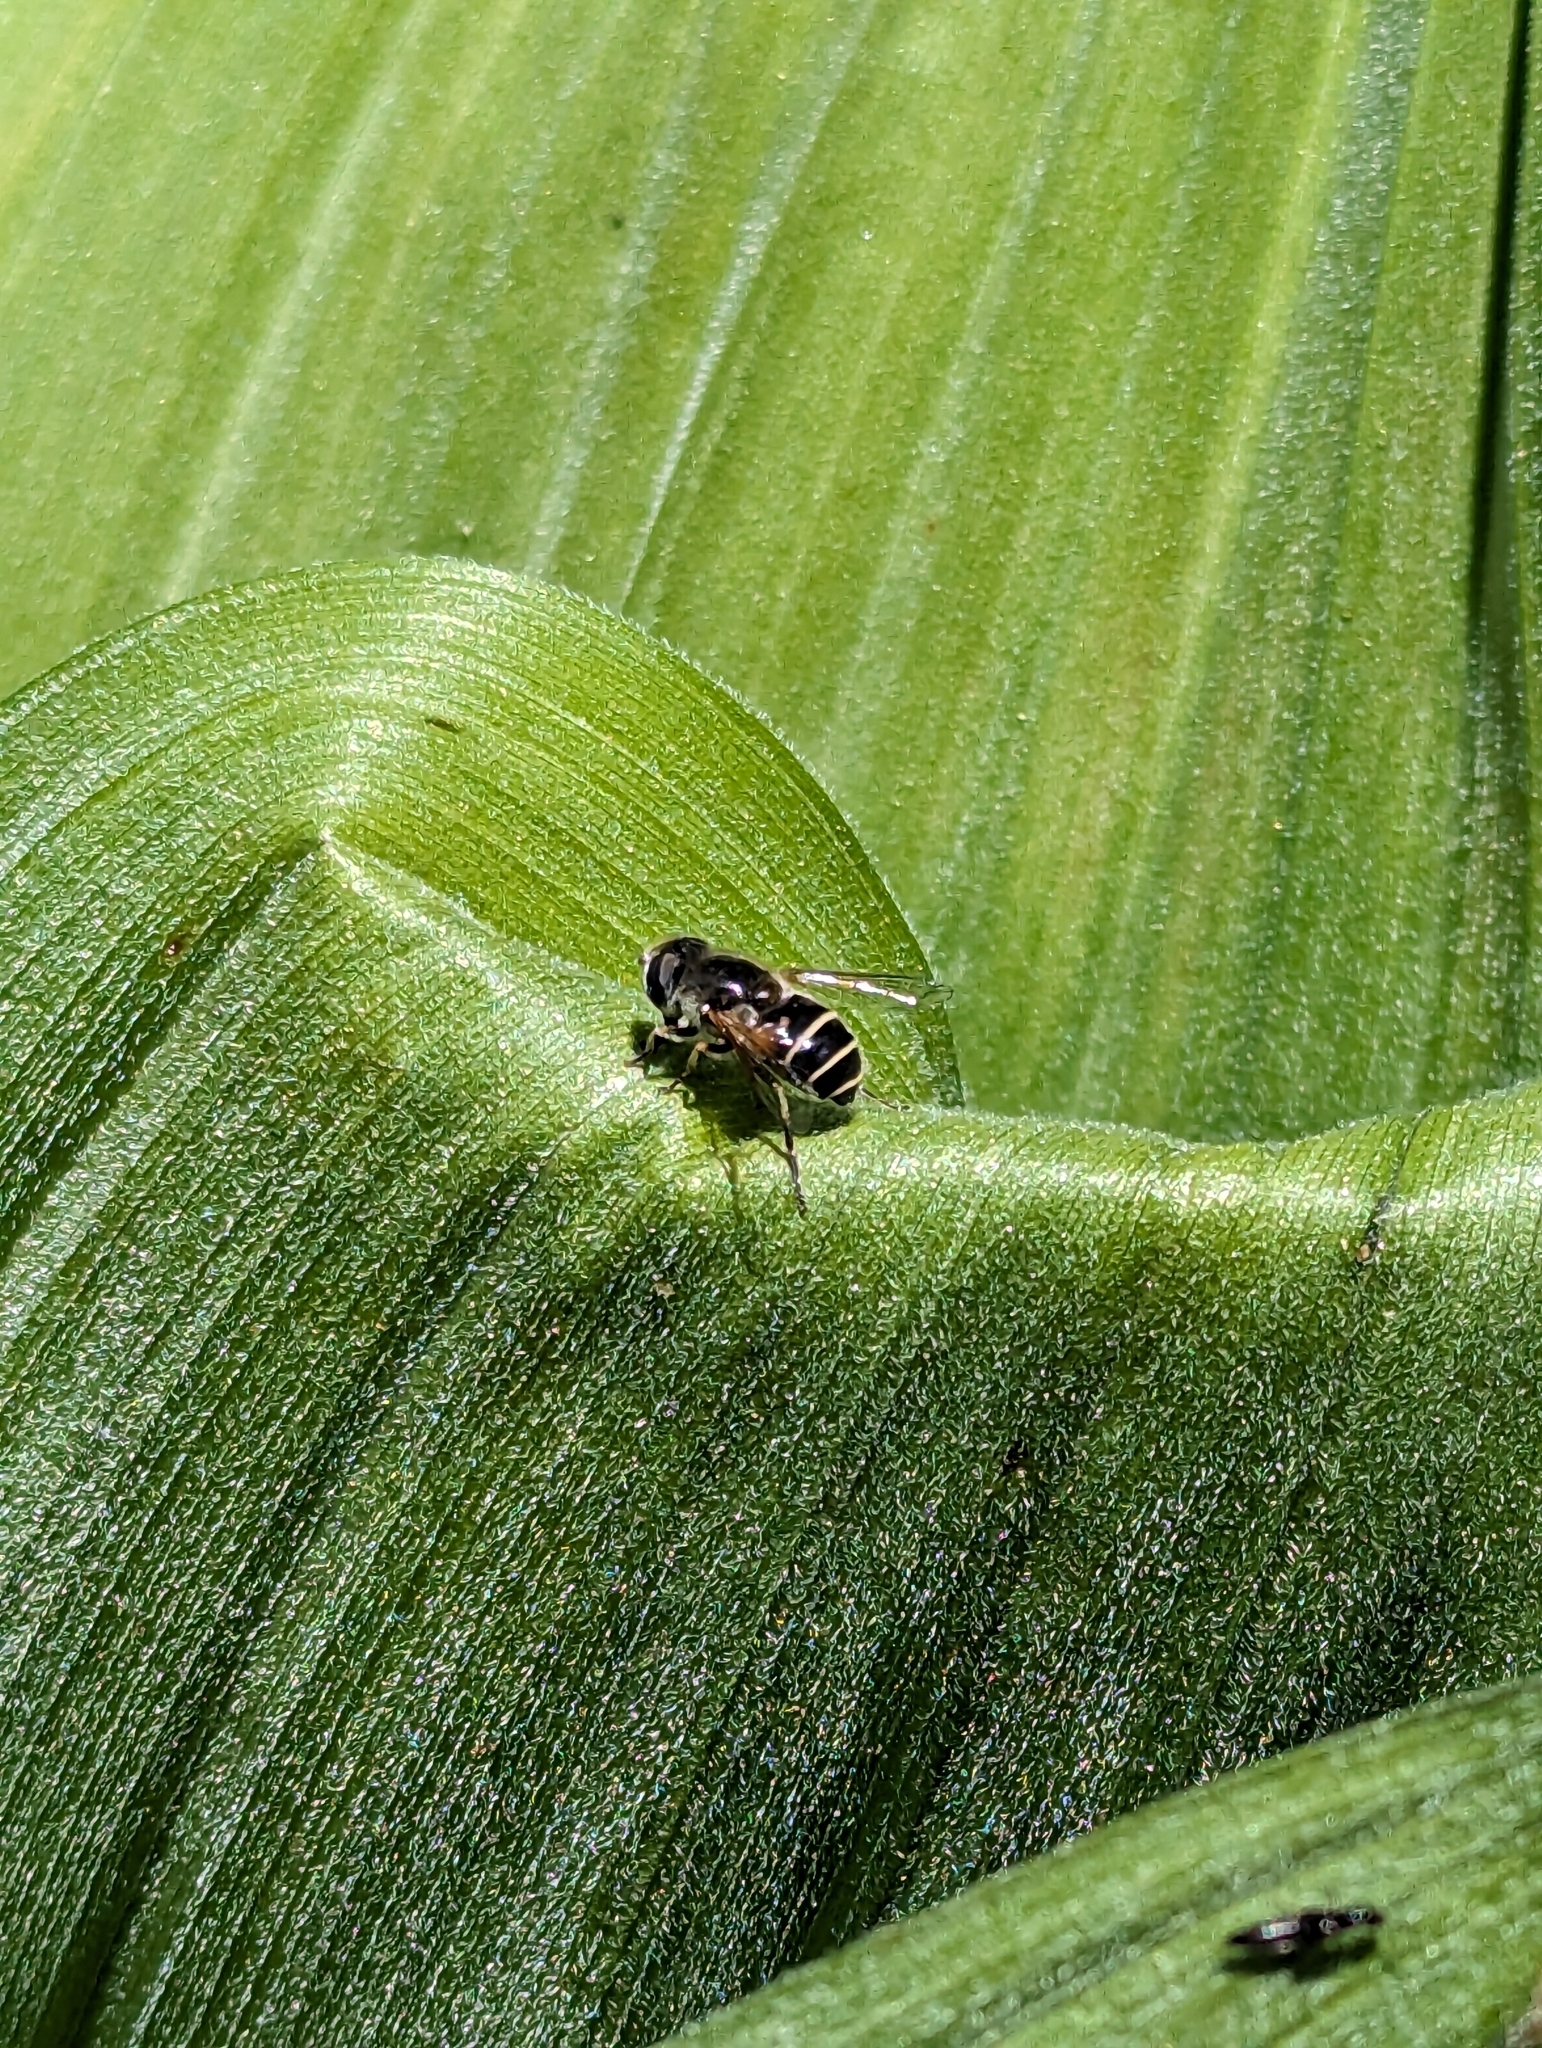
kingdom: Animalia
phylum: Arthropoda
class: Insecta
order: Diptera
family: Syrphidae
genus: Eristalis
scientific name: Eristalis hirta
